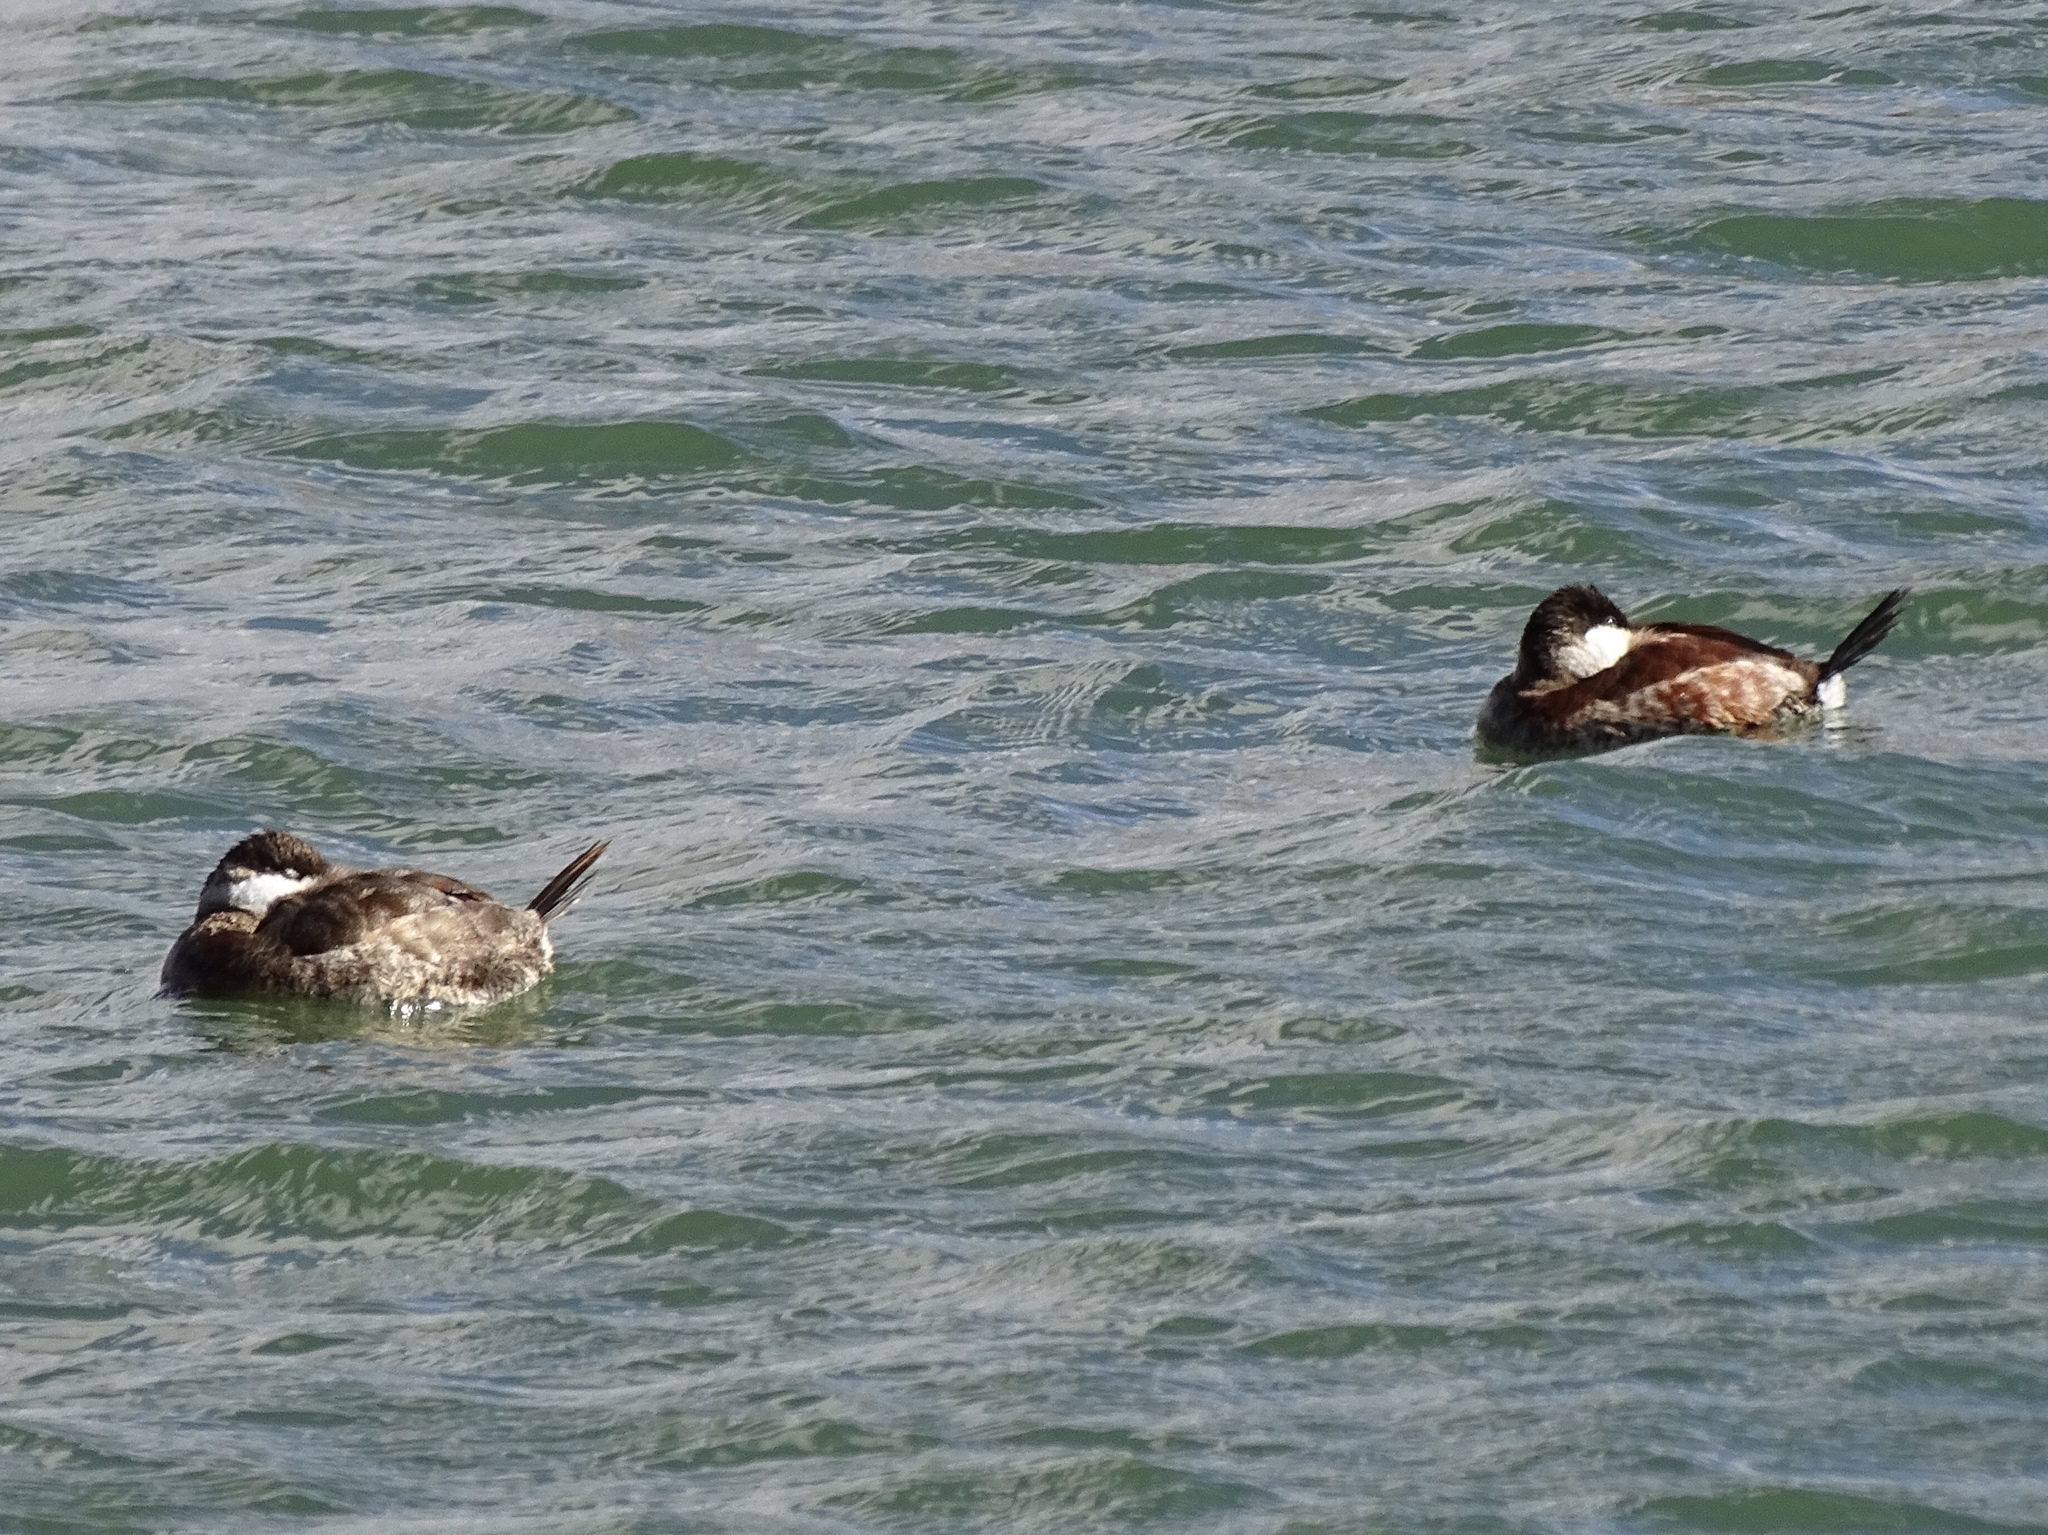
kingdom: Animalia
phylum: Chordata
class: Aves
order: Anseriformes
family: Anatidae
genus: Oxyura
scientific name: Oxyura jamaicensis
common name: Ruddy duck
